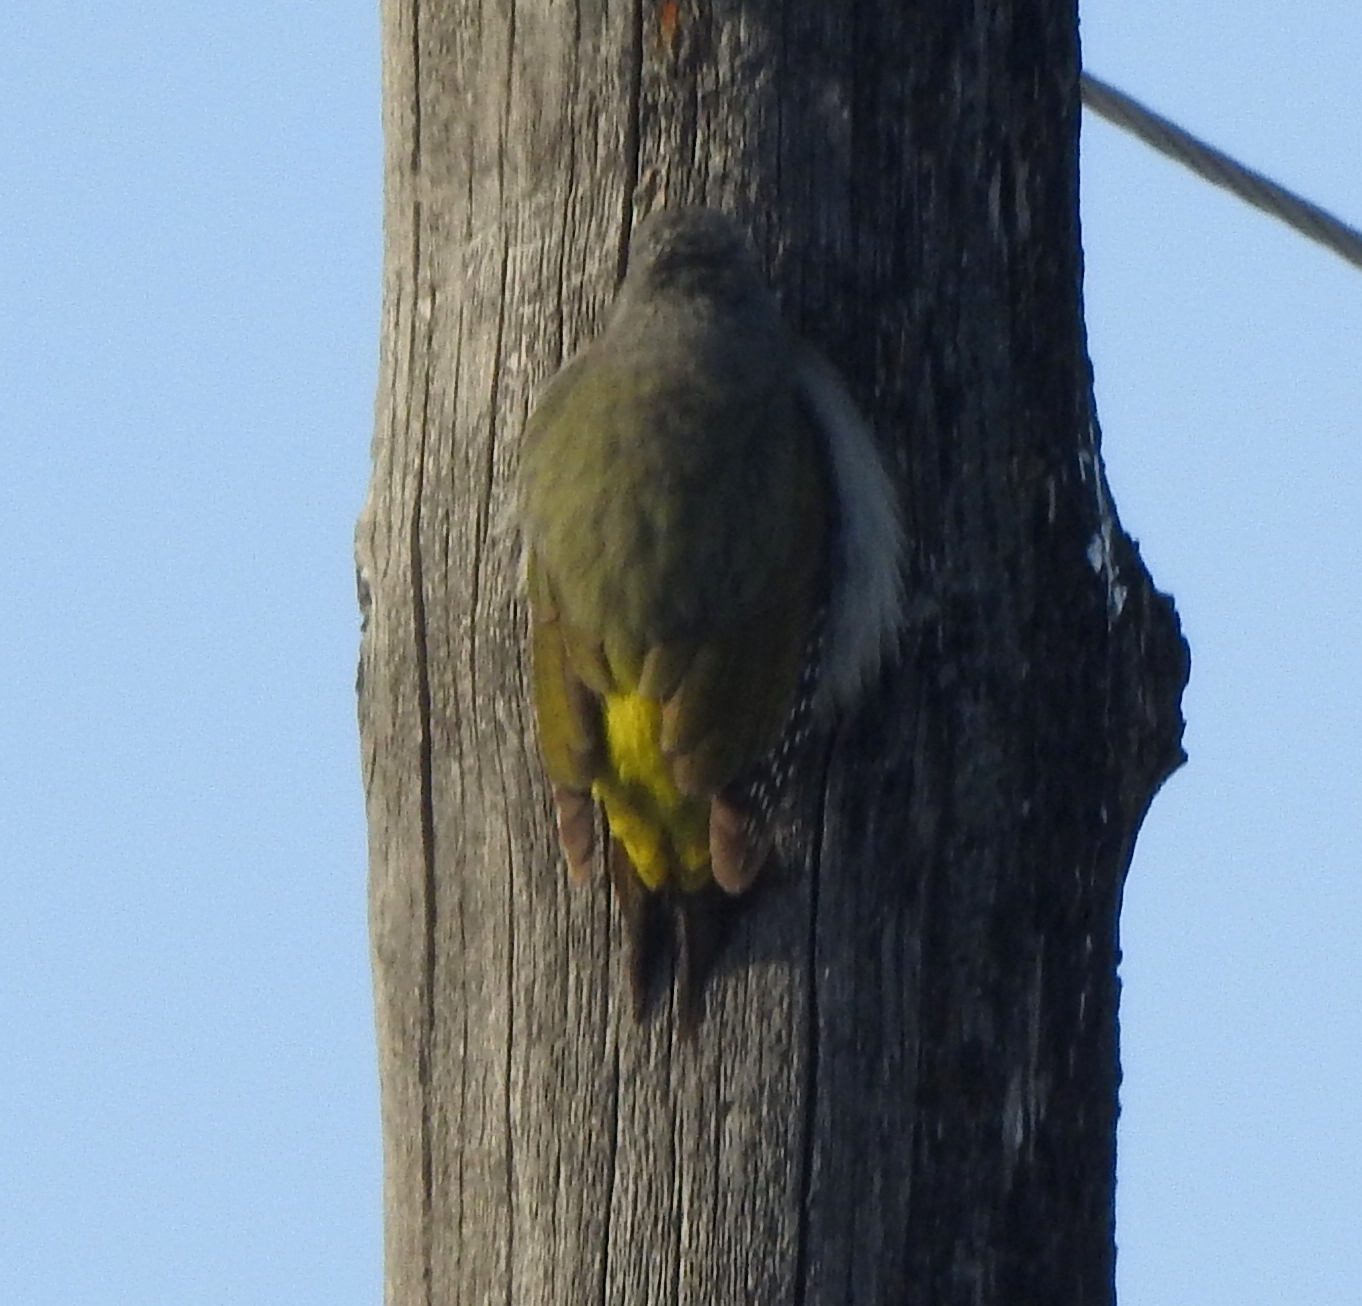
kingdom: Animalia
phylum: Chordata
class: Aves
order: Piciformes
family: Picidae
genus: Picus
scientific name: Picus canus
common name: Grey-headed woodpecker
